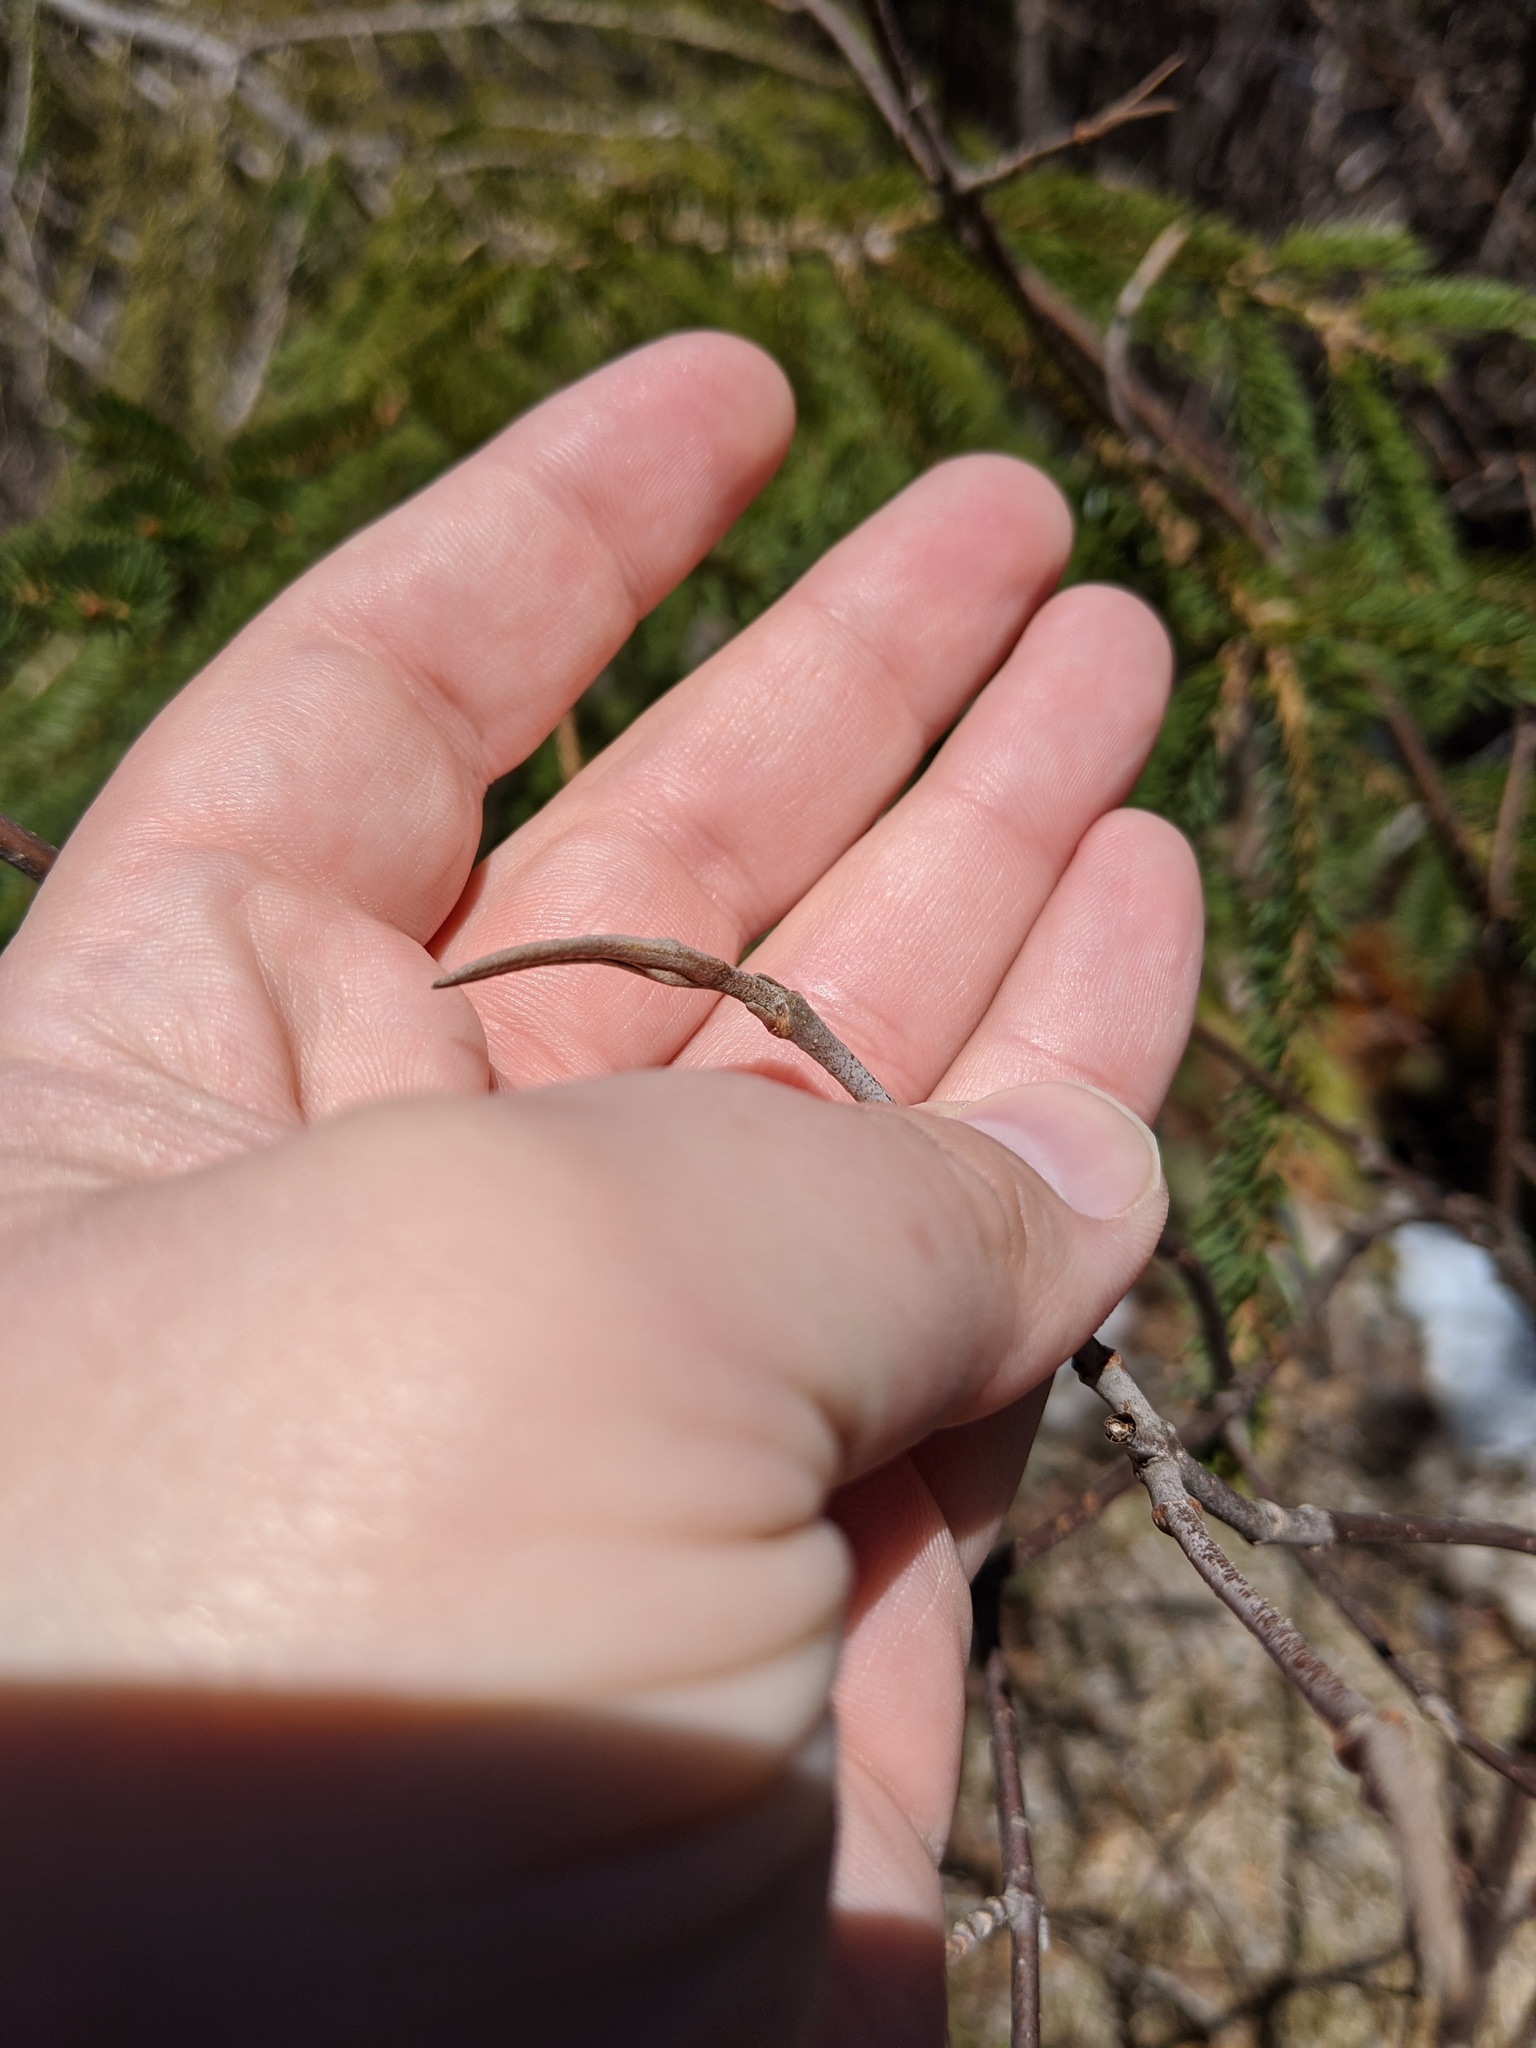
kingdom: Plantae
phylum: Tracheophyta
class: Magnoliopsida
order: Dipsacales
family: Viburnaceae
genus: Viburnum
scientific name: Viburnum cassinoides
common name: Swamp haw
